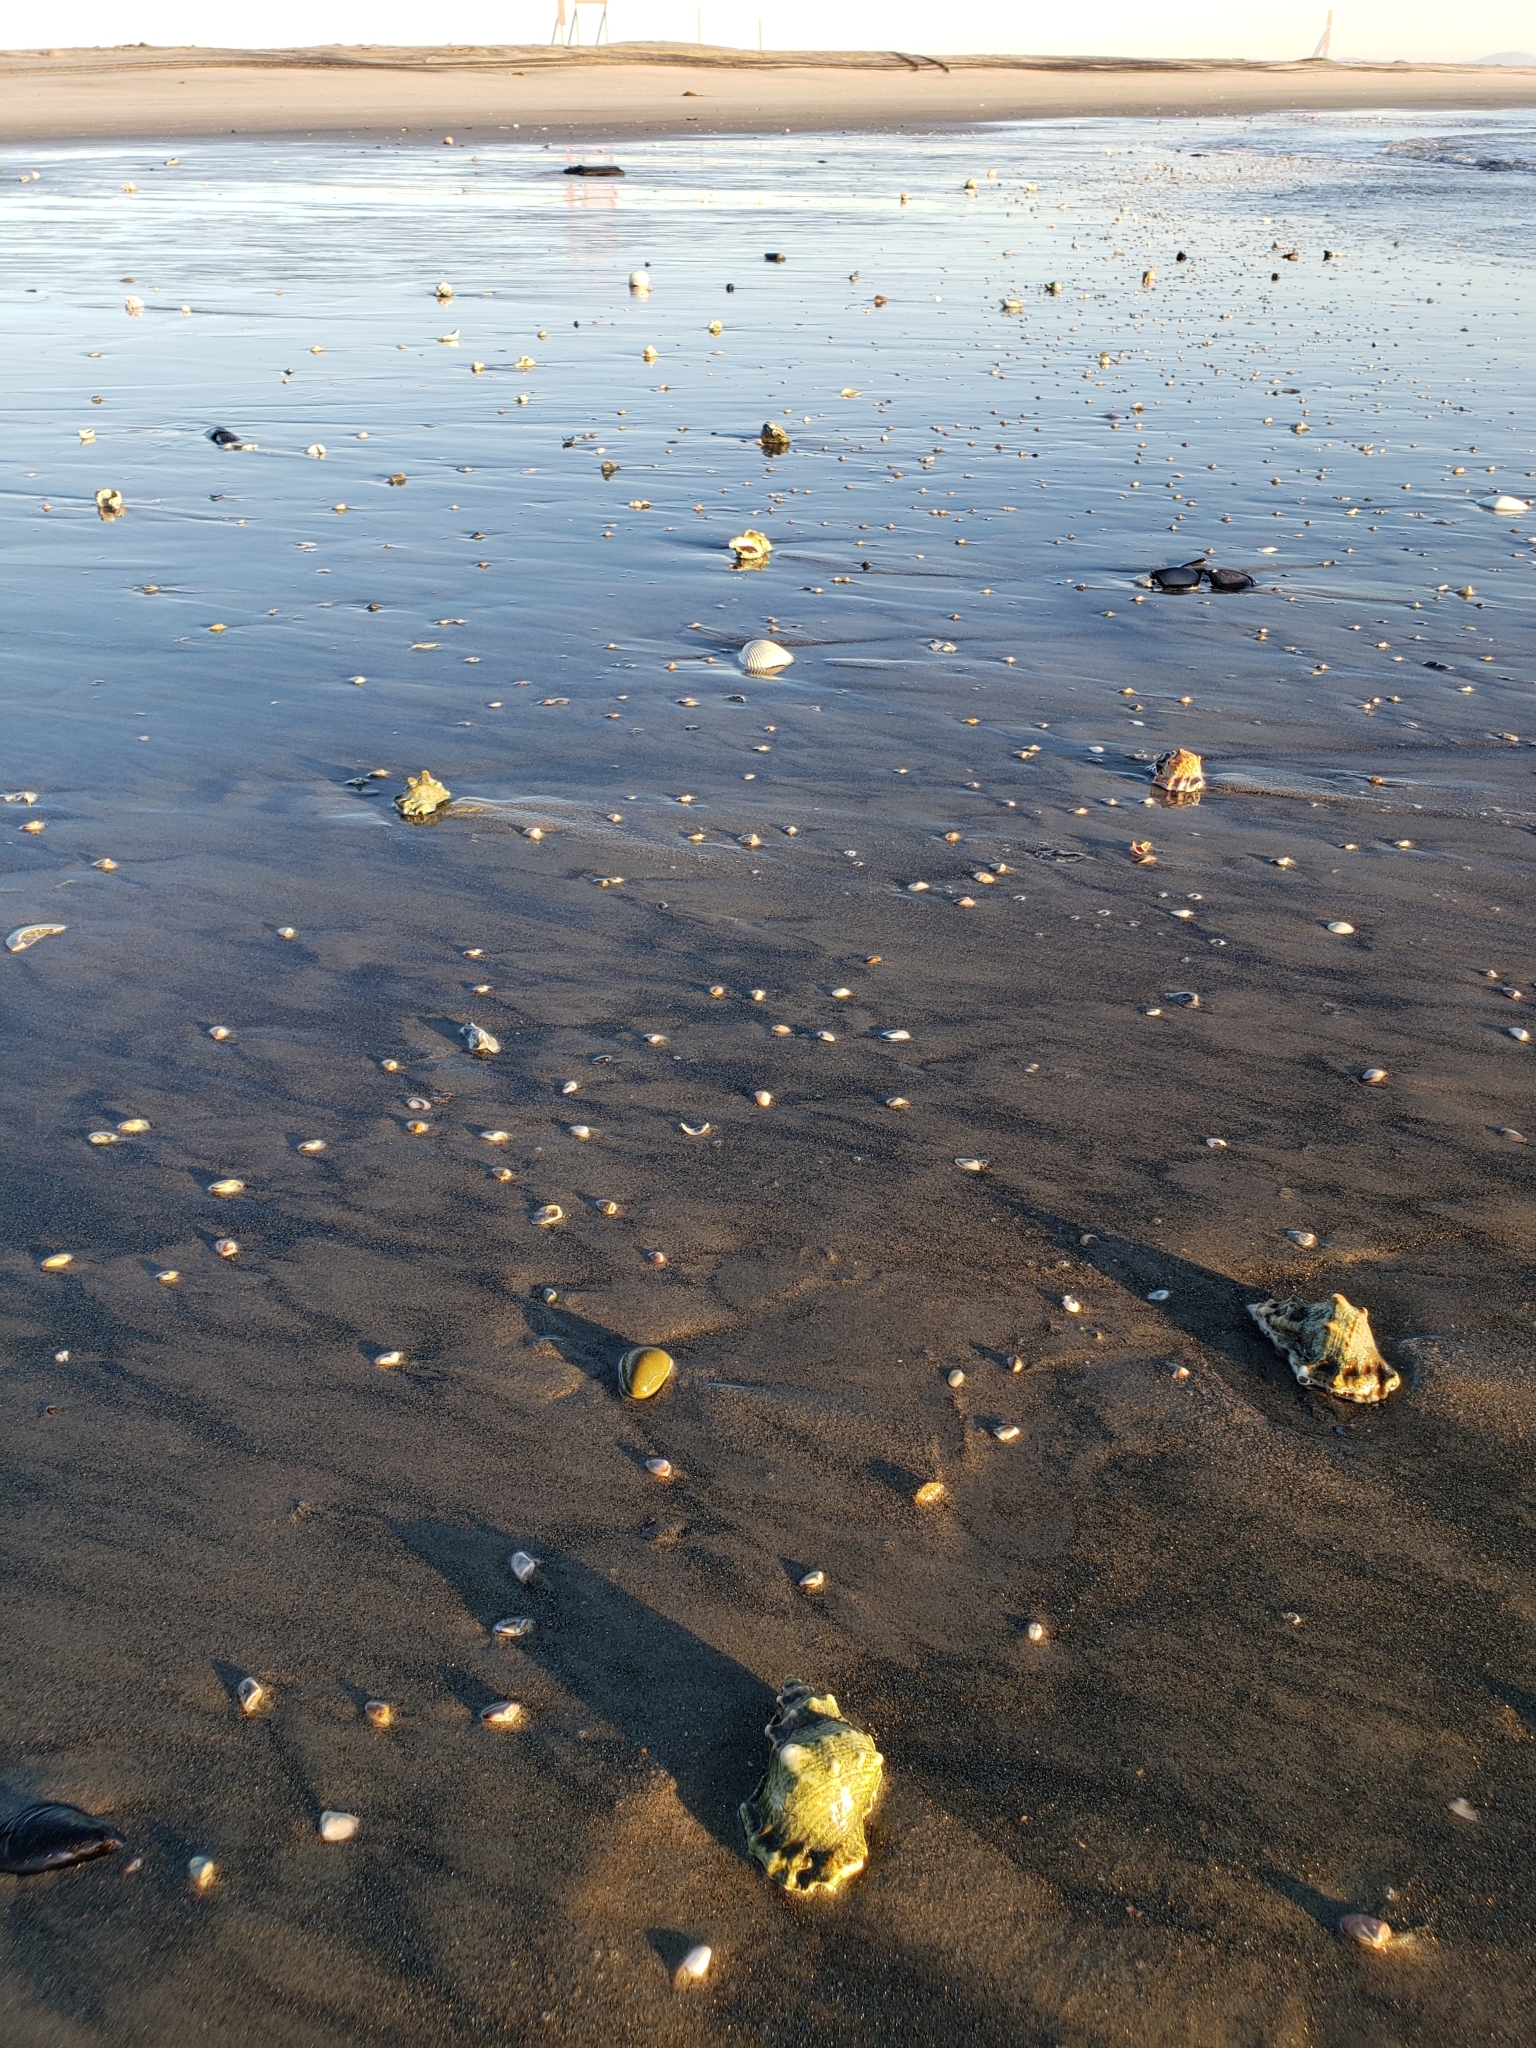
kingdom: Animalia
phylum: Mollusca
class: Gastropoda
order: Littorinimorpha
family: Bursidae
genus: Crossata
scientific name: Crossata californica
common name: California frogsnail
